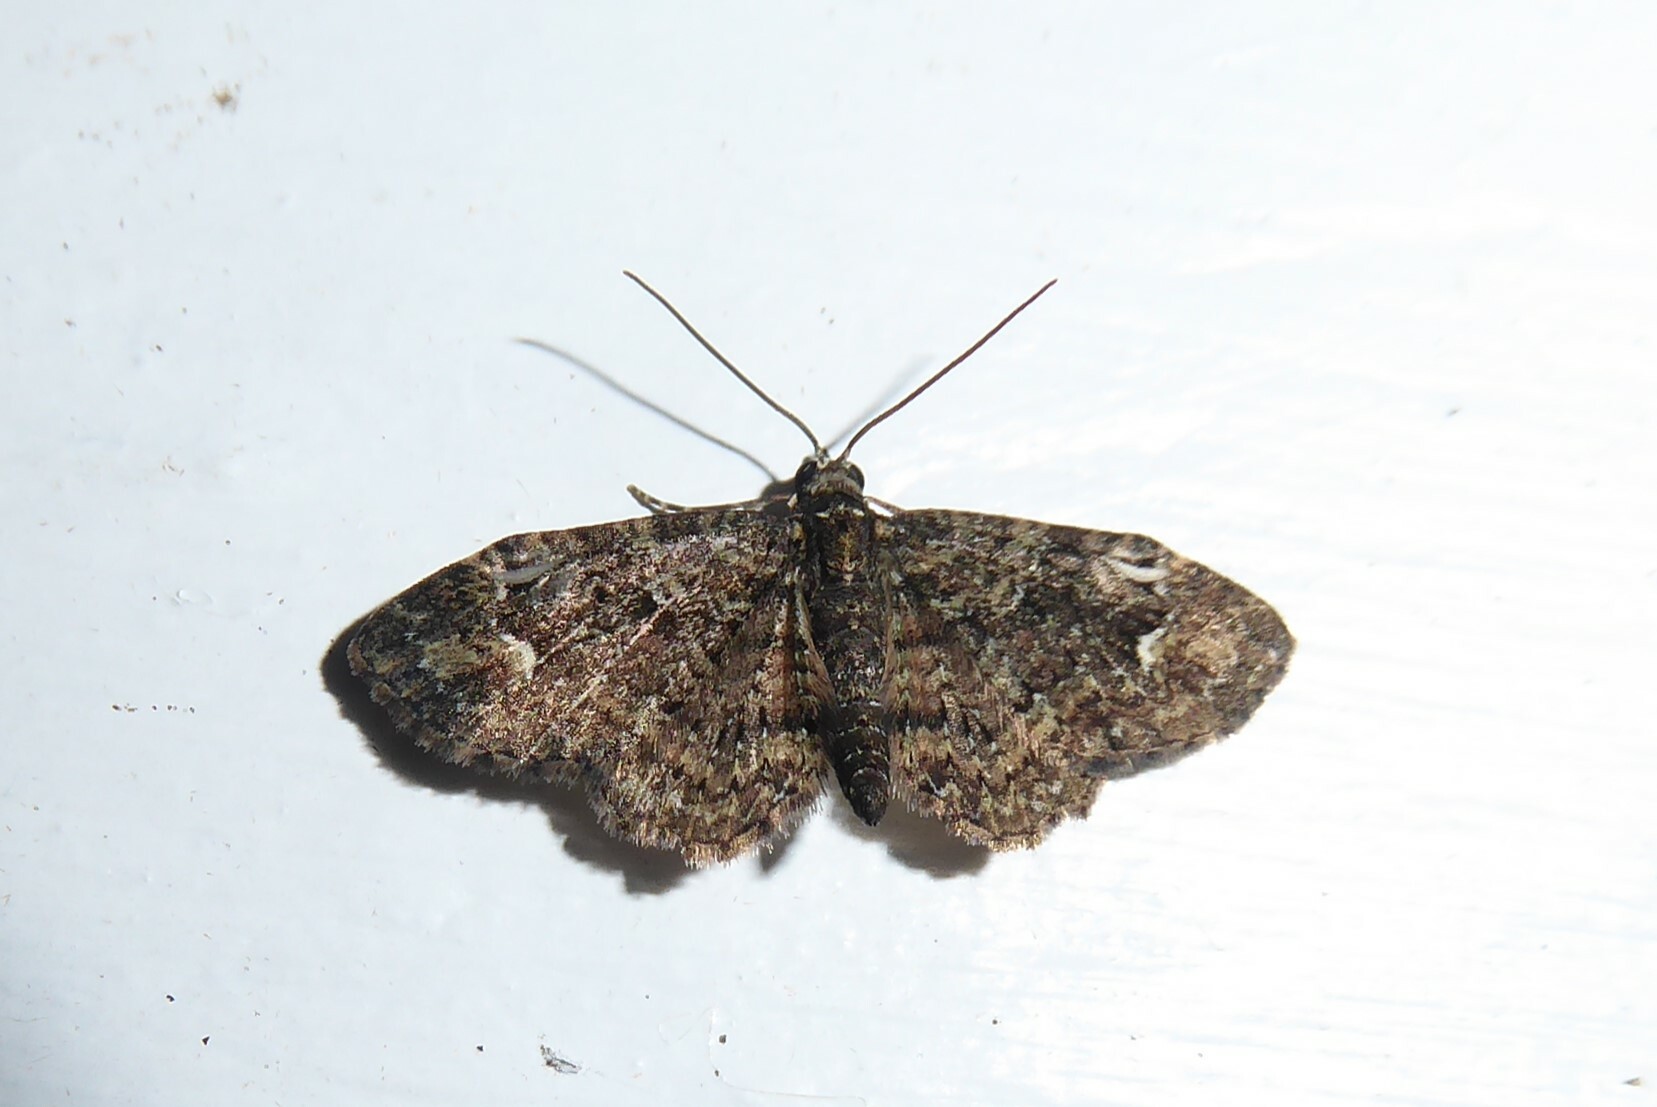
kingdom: Animalia
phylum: Arthropoda
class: Insecta
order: Lepidoptera
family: Geometridae
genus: Pasiphilodes
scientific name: Pasiphilodes testulata
